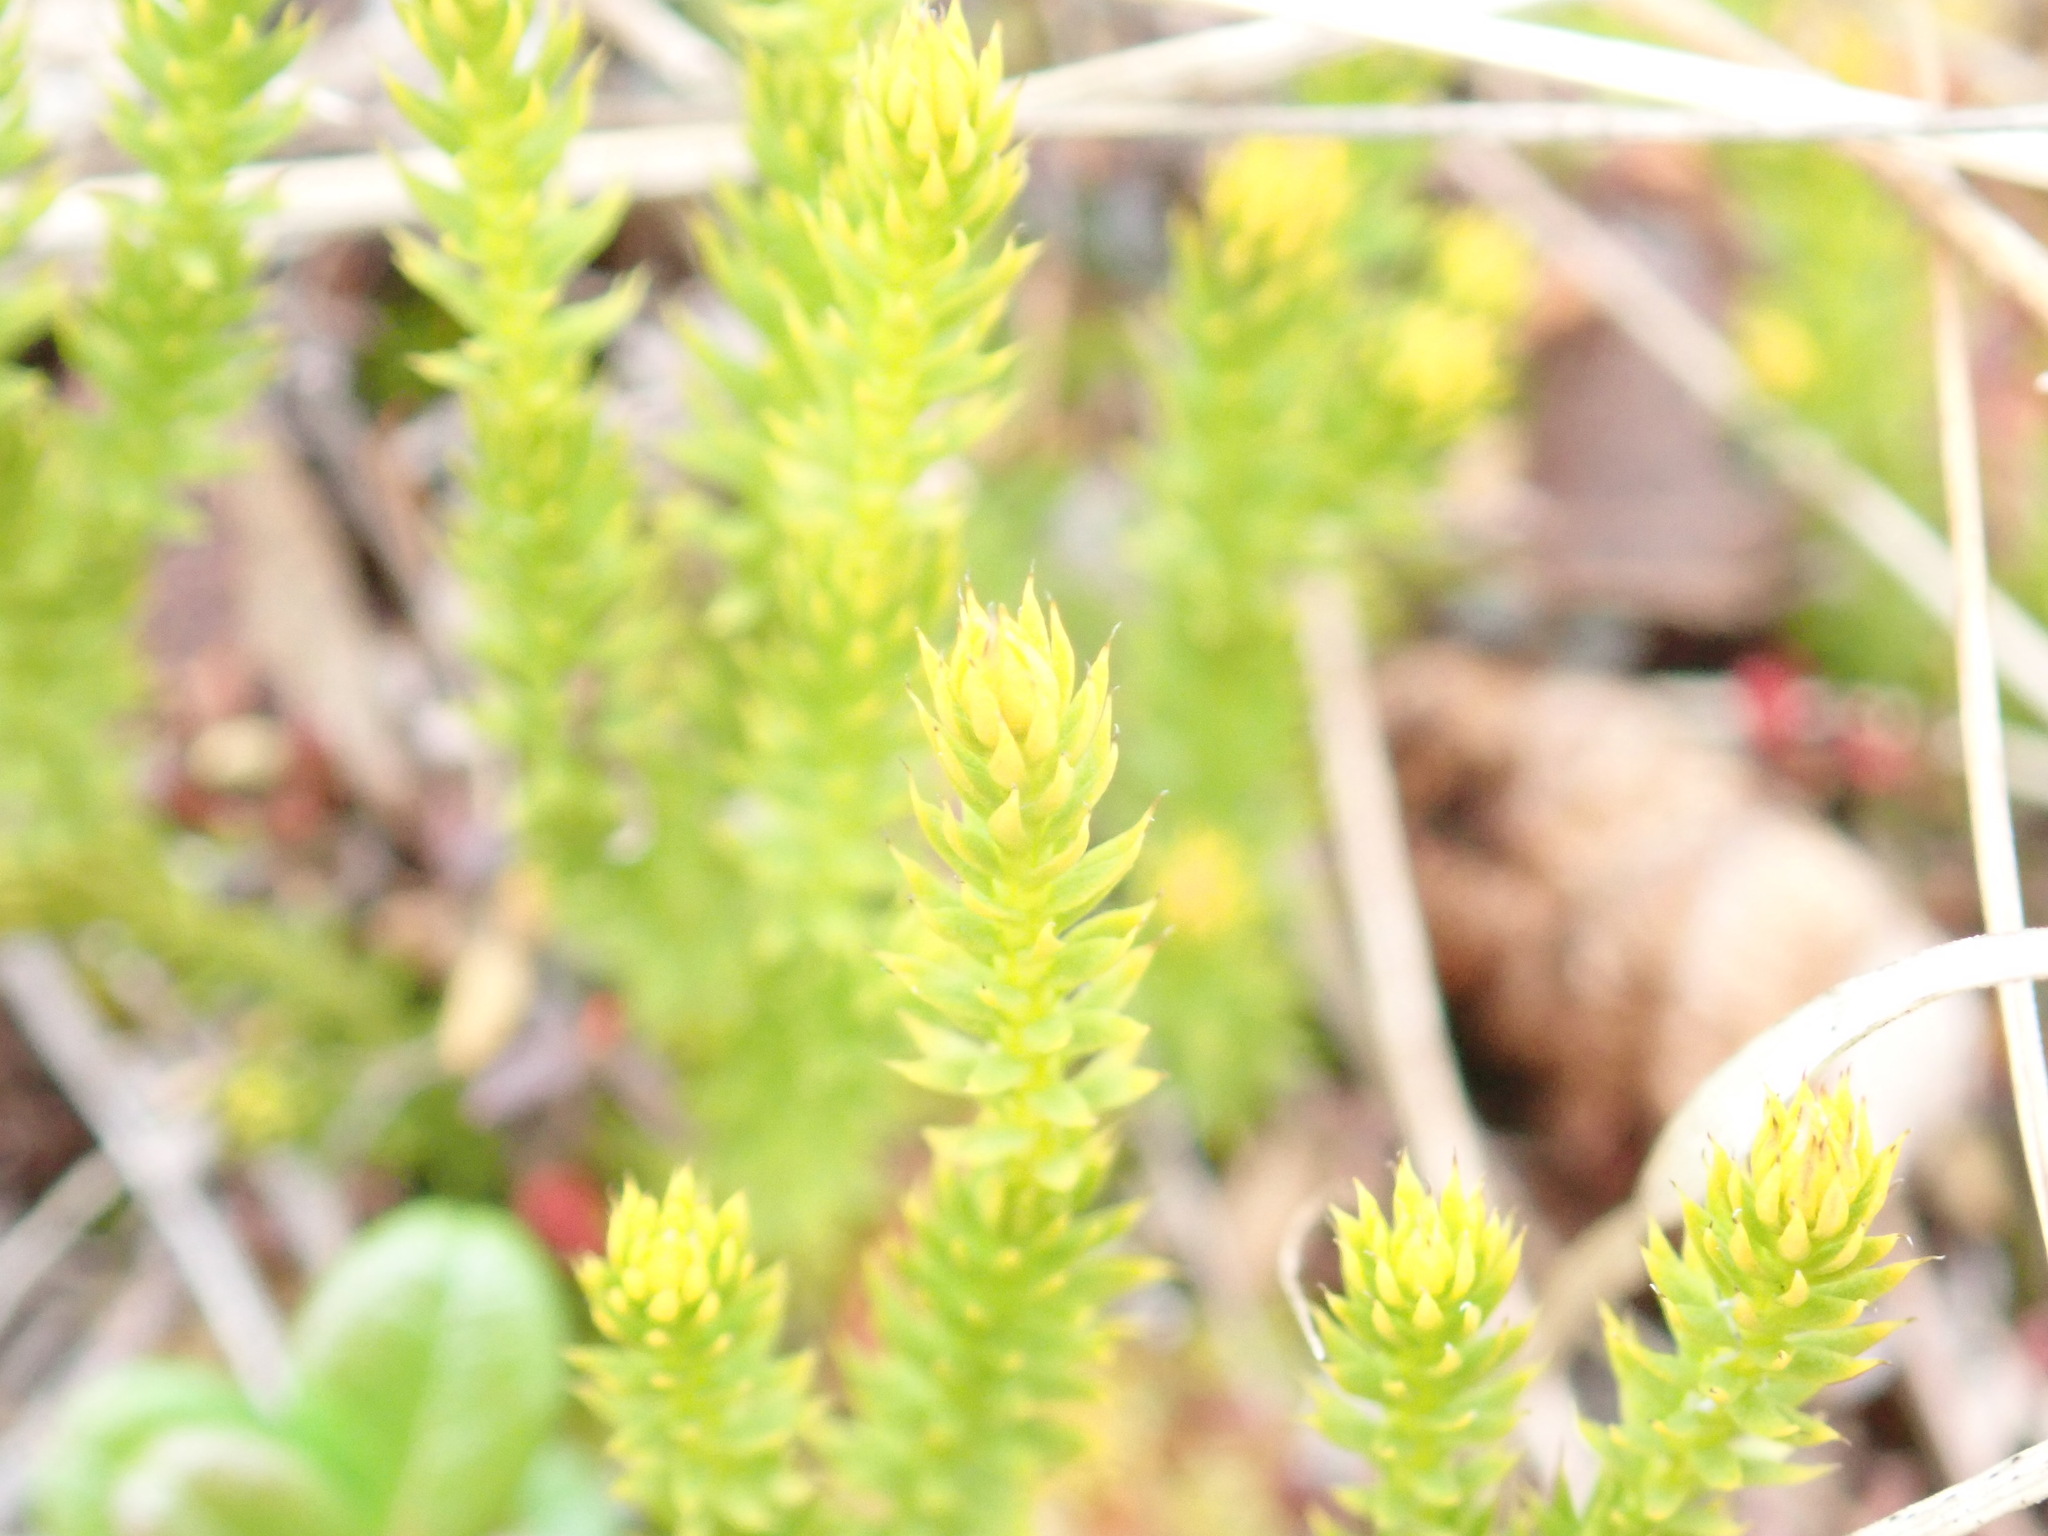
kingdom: Plantae
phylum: Tracheophyta
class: Lycopodiopsida
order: Lycopodiales
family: Lycopodiaceae
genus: Spinulum
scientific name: Spinulum annotinum
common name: Interrupted club-moss
